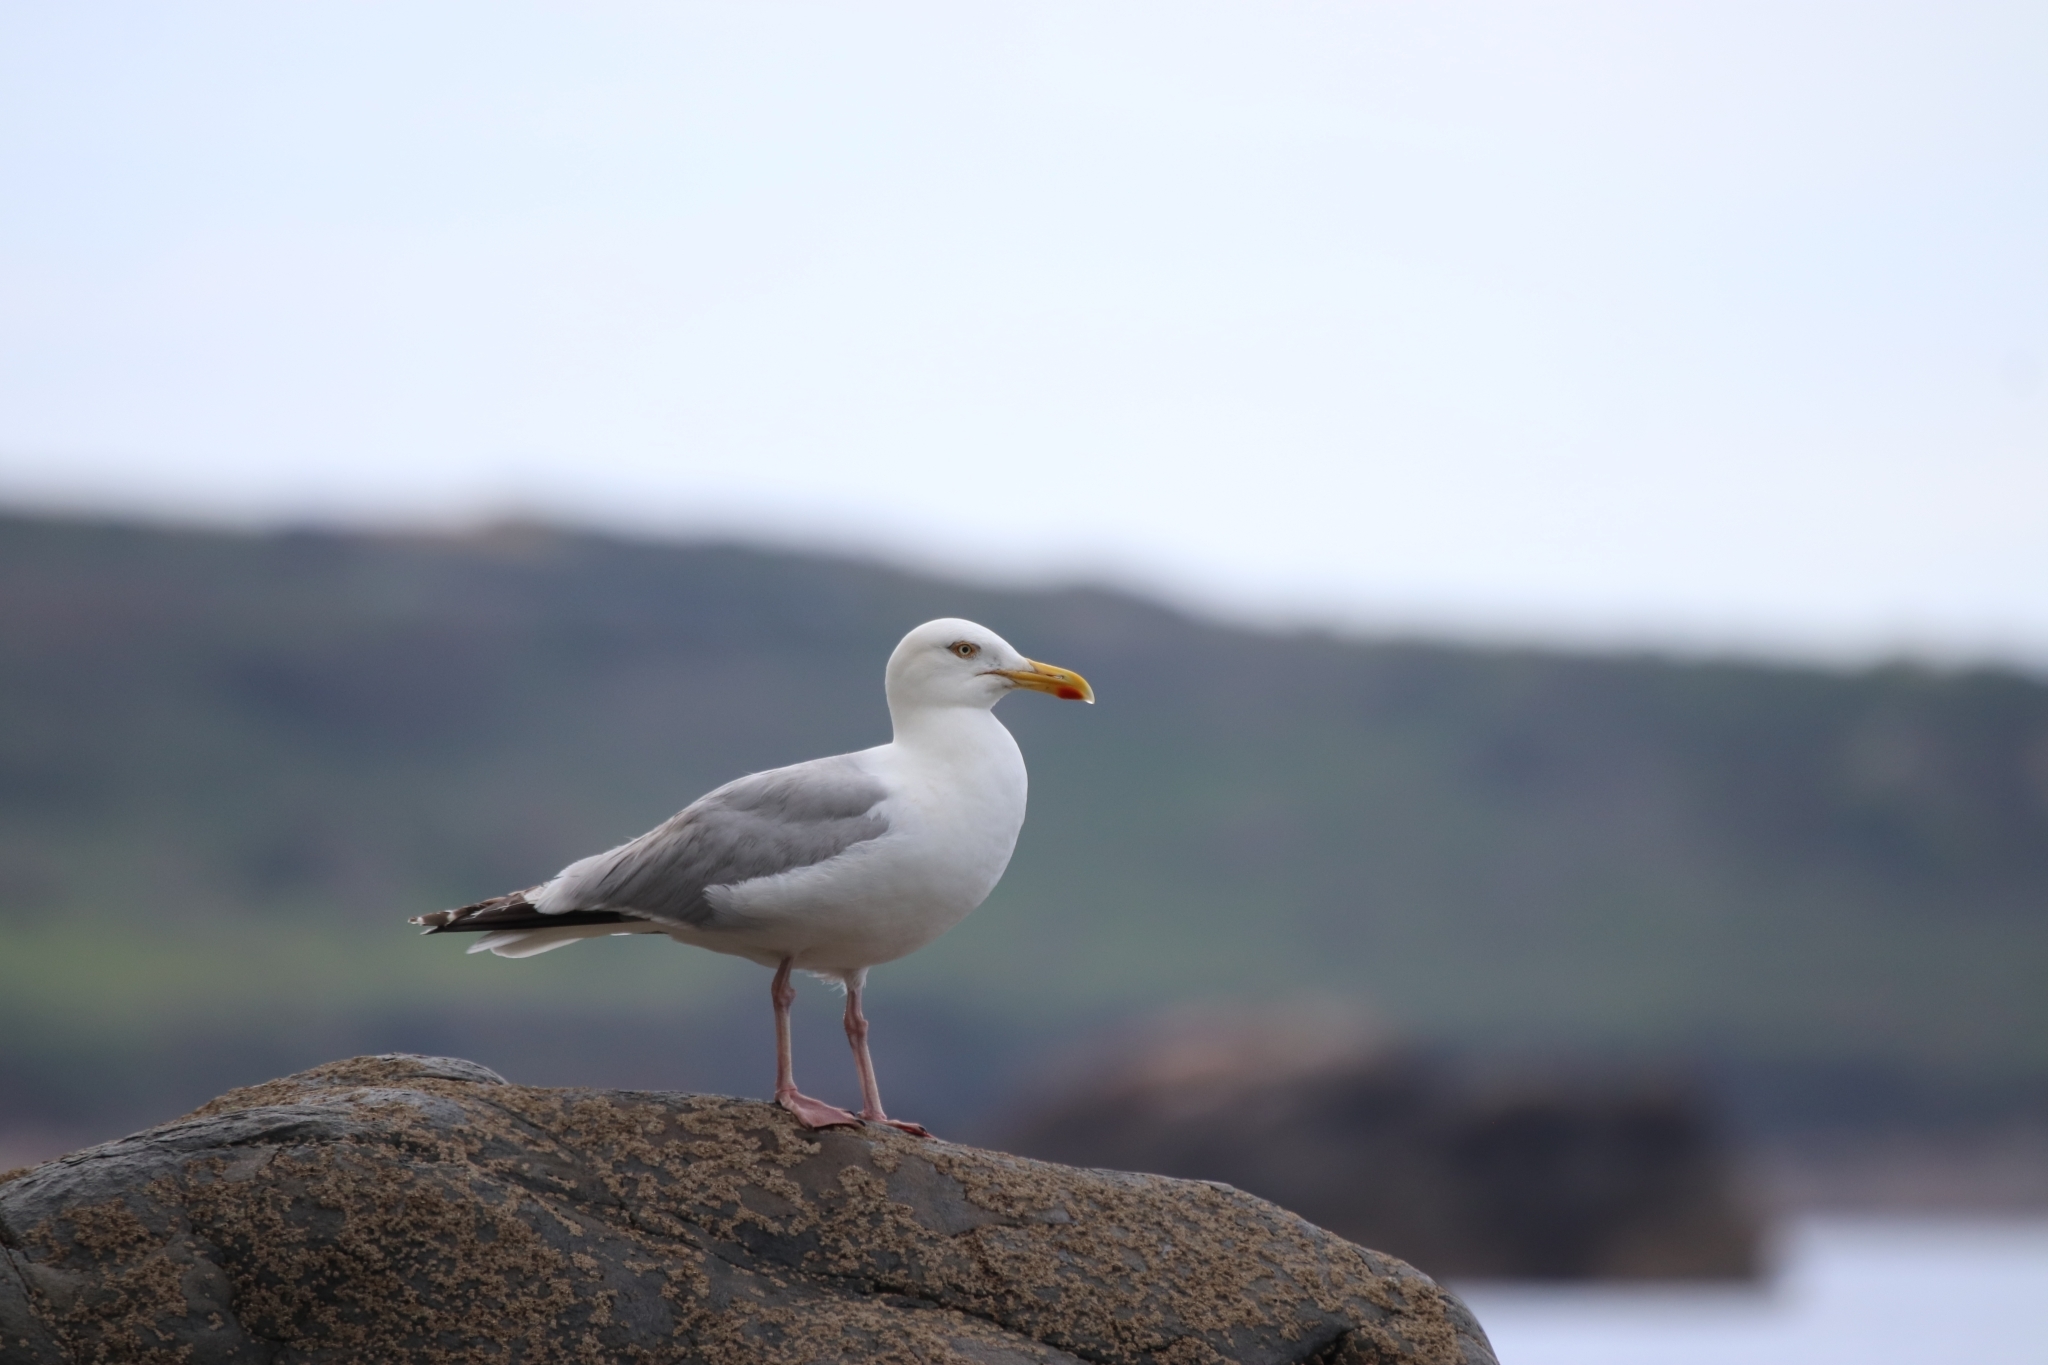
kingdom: Animalia
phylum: Chordata
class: Aves
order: Charadriiformes
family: Laridae
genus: Larus
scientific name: Larus argentatus
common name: Herring gull
